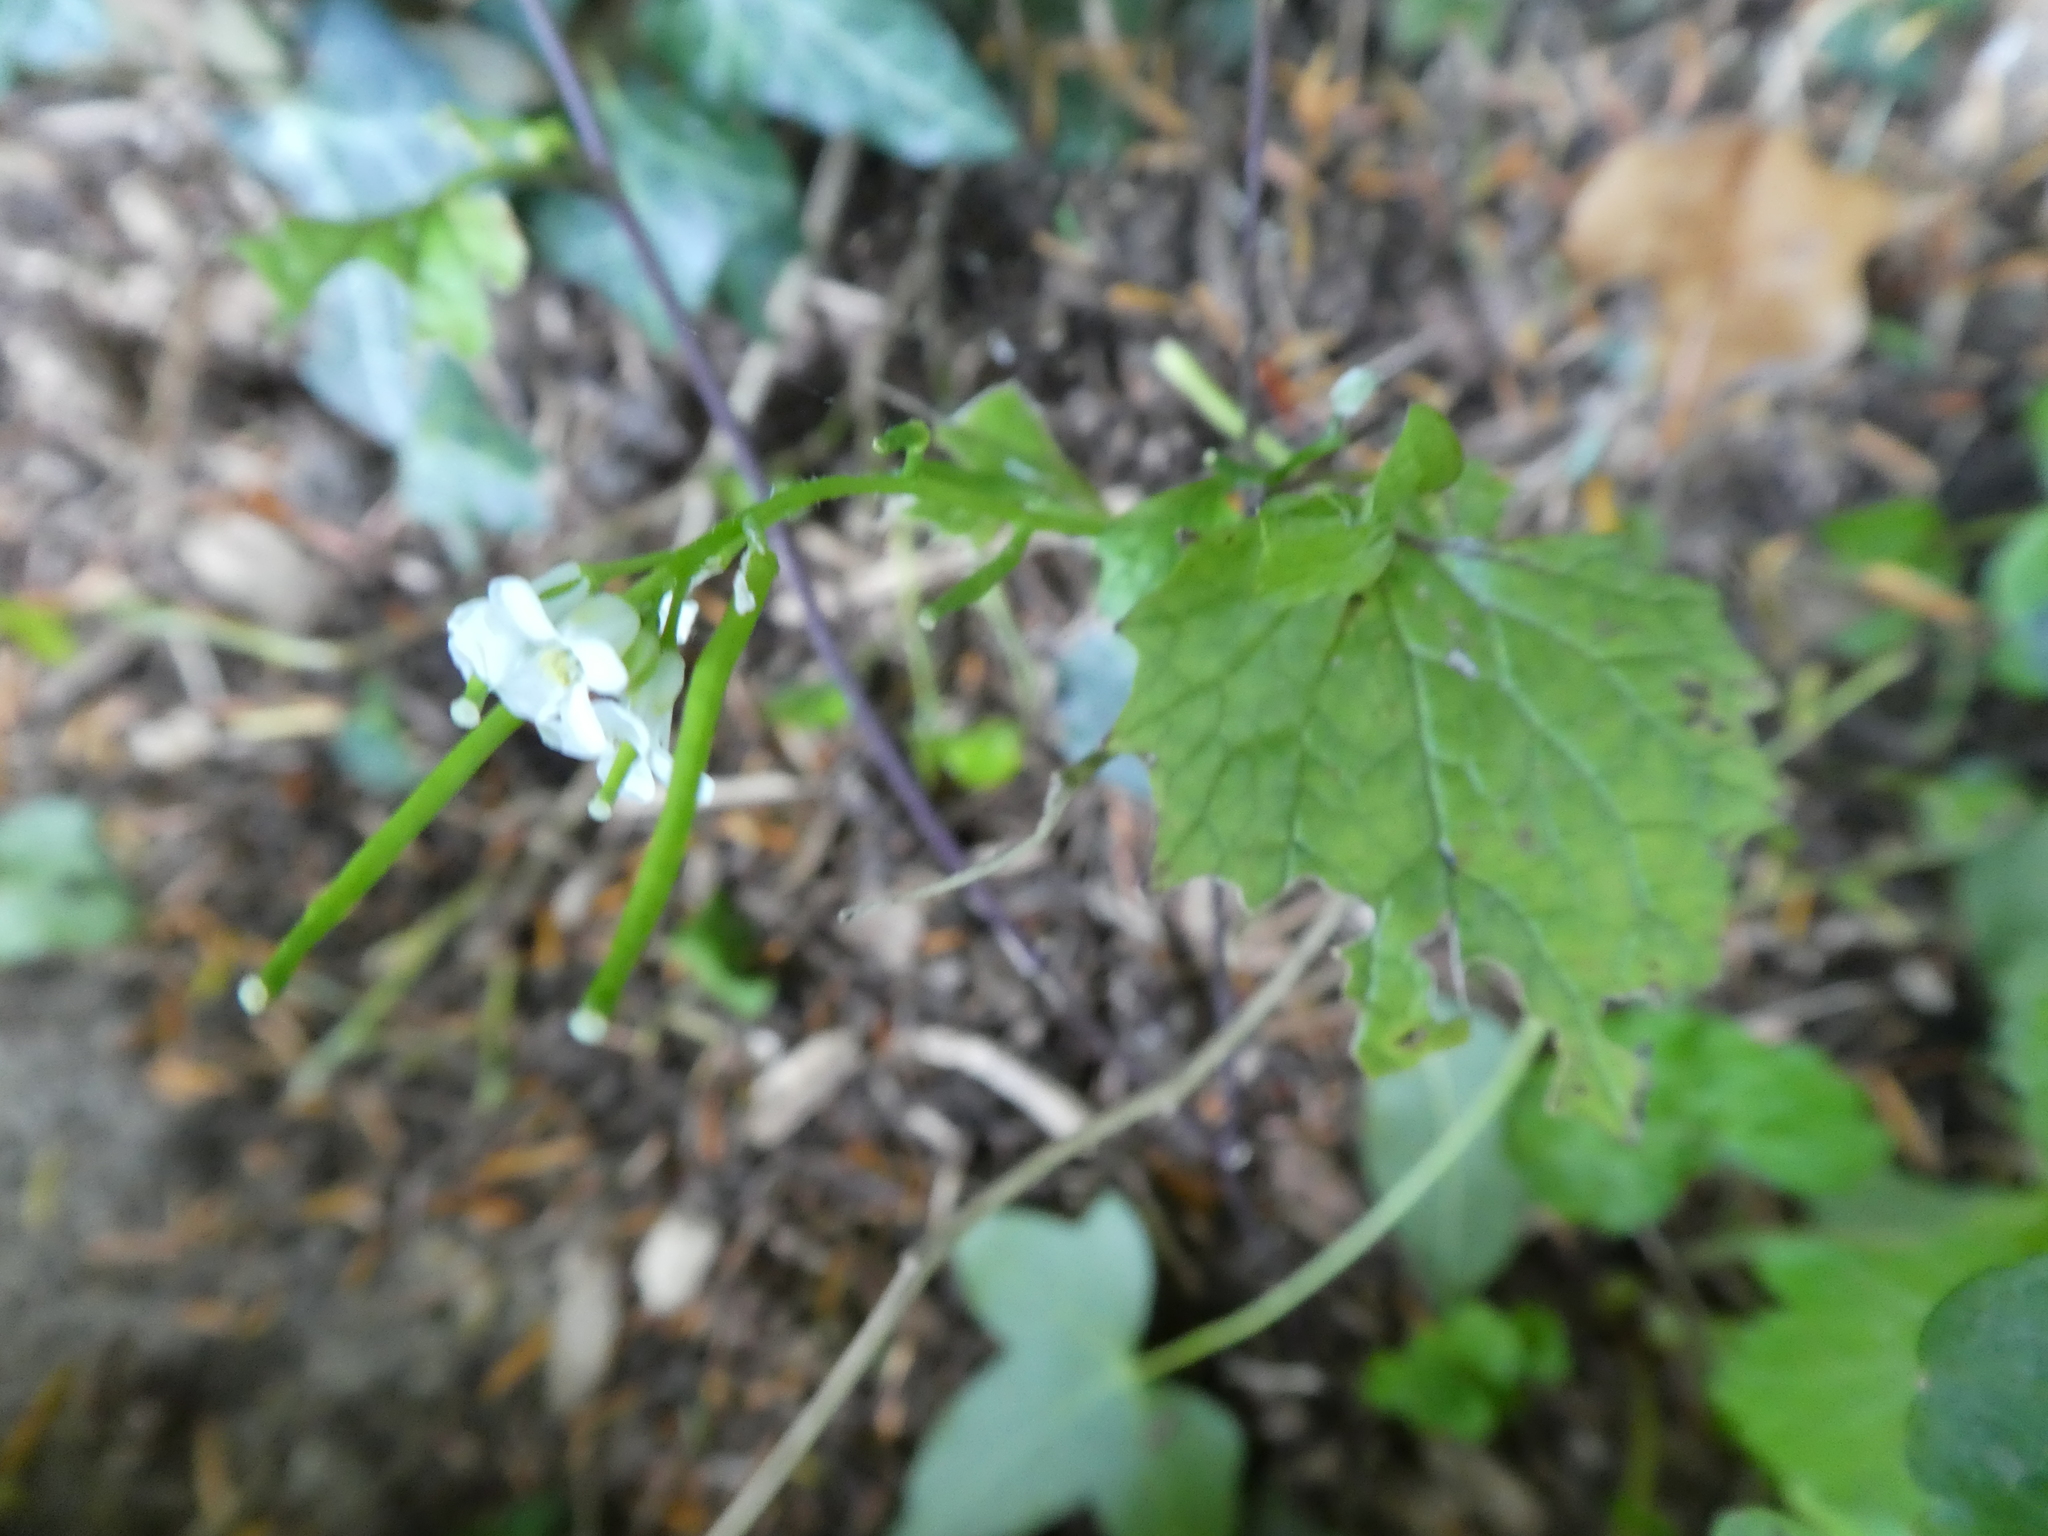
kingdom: Plantae
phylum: Tracheophyta
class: Magnoliopsida
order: Brassicales
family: Brassicaceae
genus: Alliaria
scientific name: Alliaria petiolata
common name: Garlic mustard
